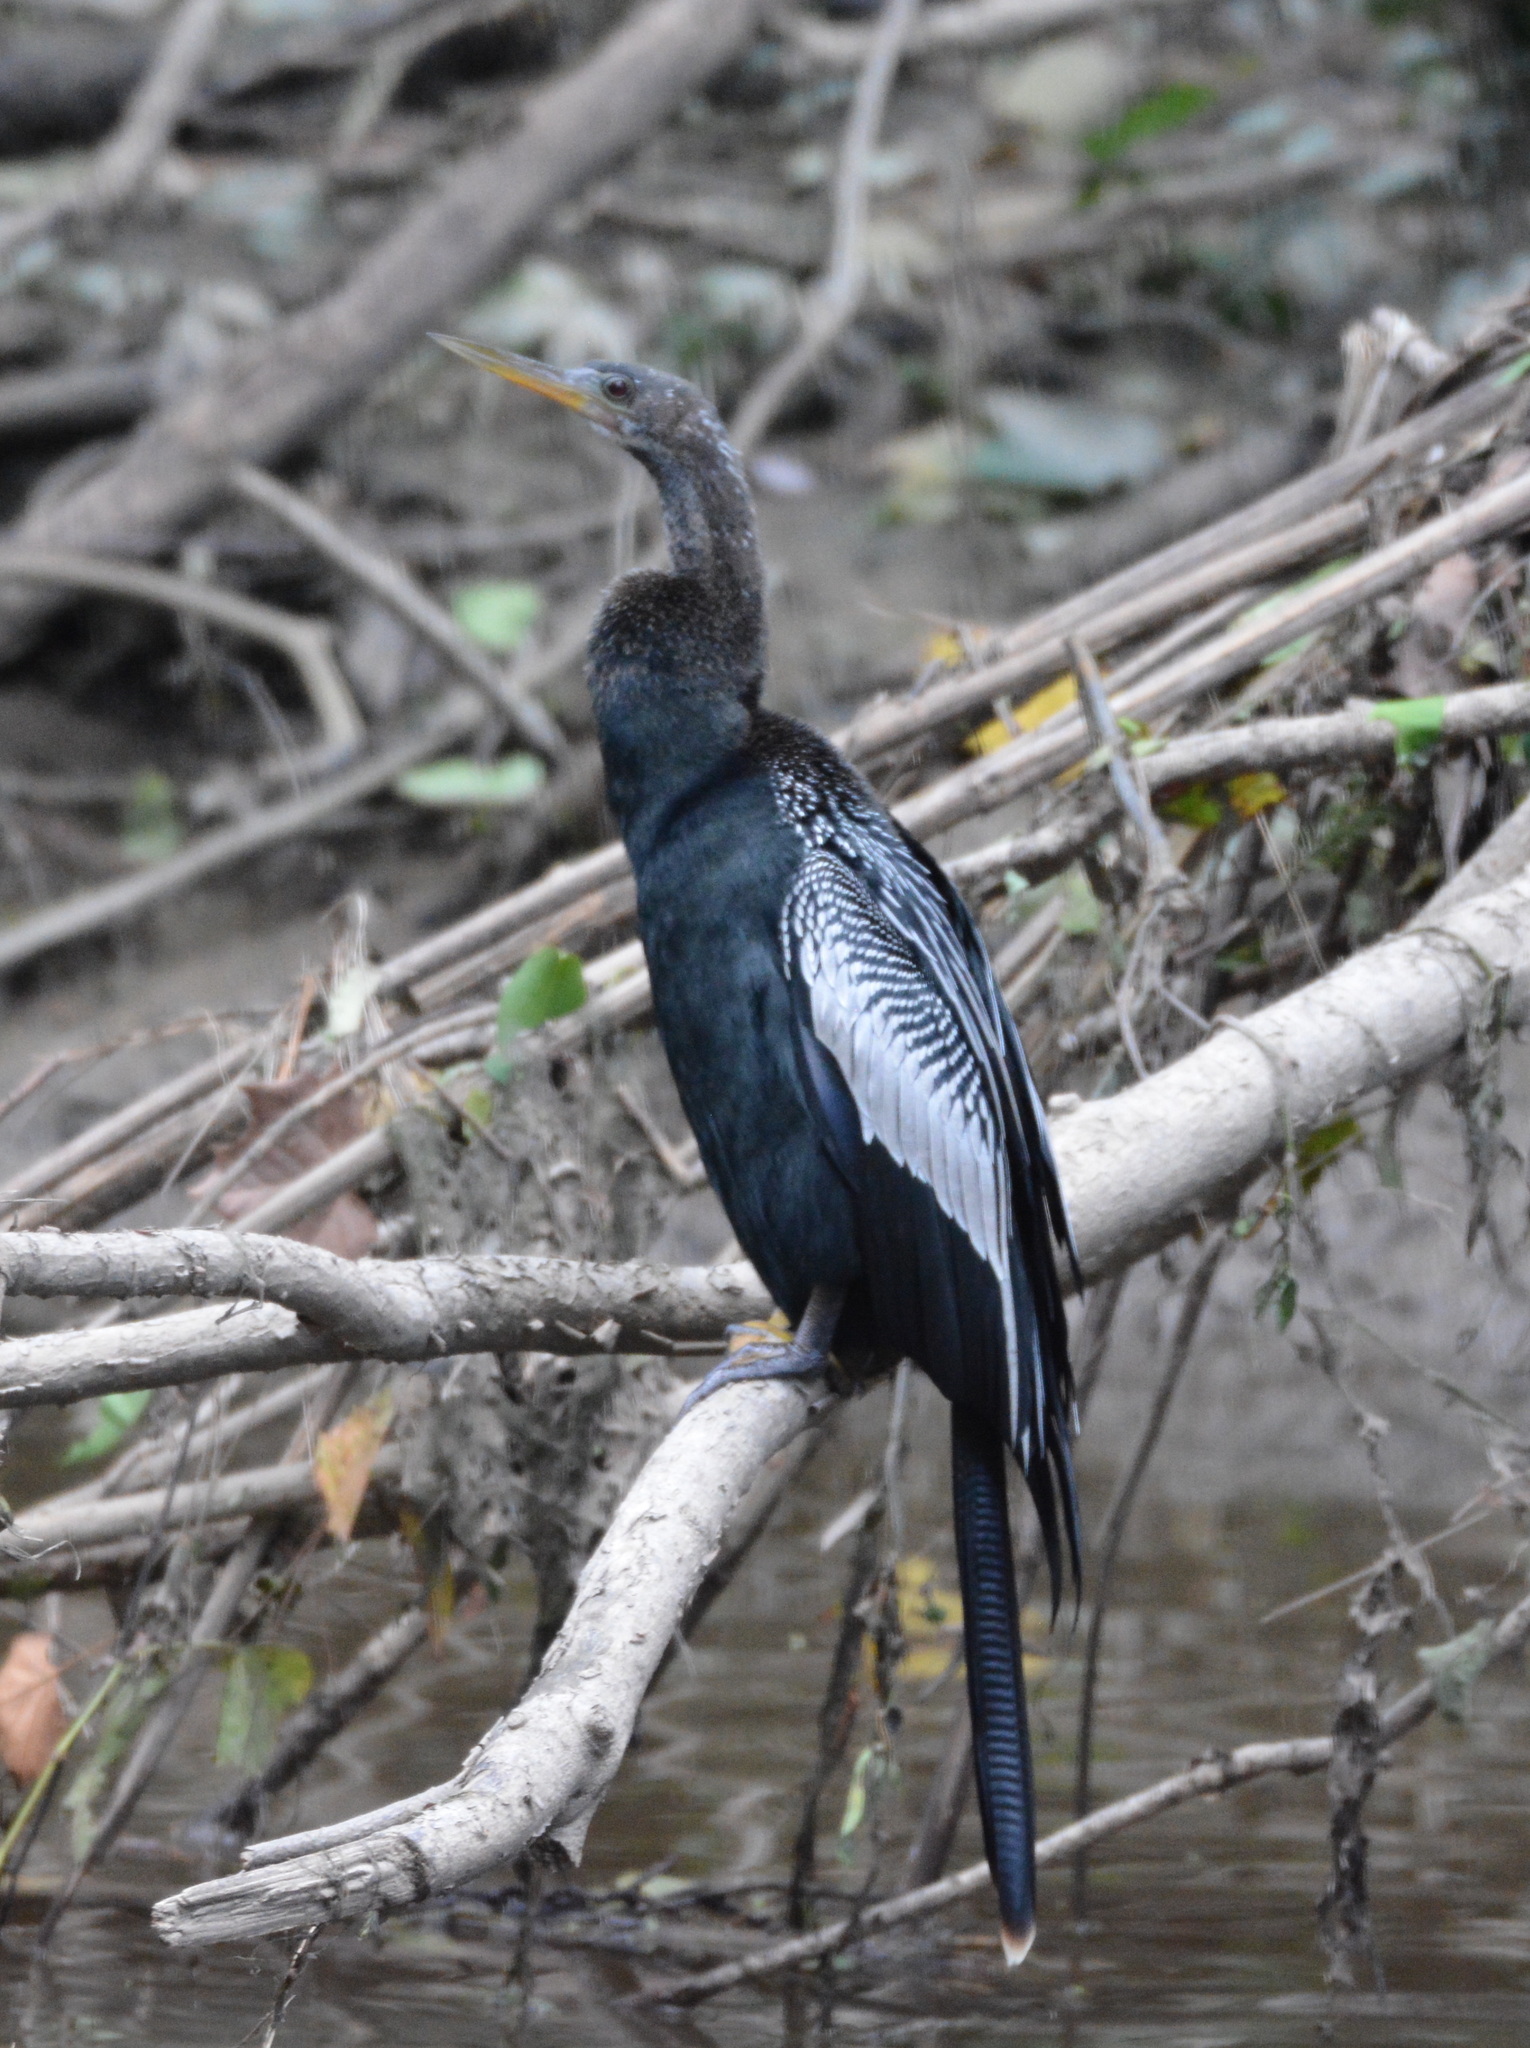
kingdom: Animalia
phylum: Chordata
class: Aves
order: Suliformes
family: Anhingidae
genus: Anhinga
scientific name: Anhinga anhinga
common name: Anhinga
